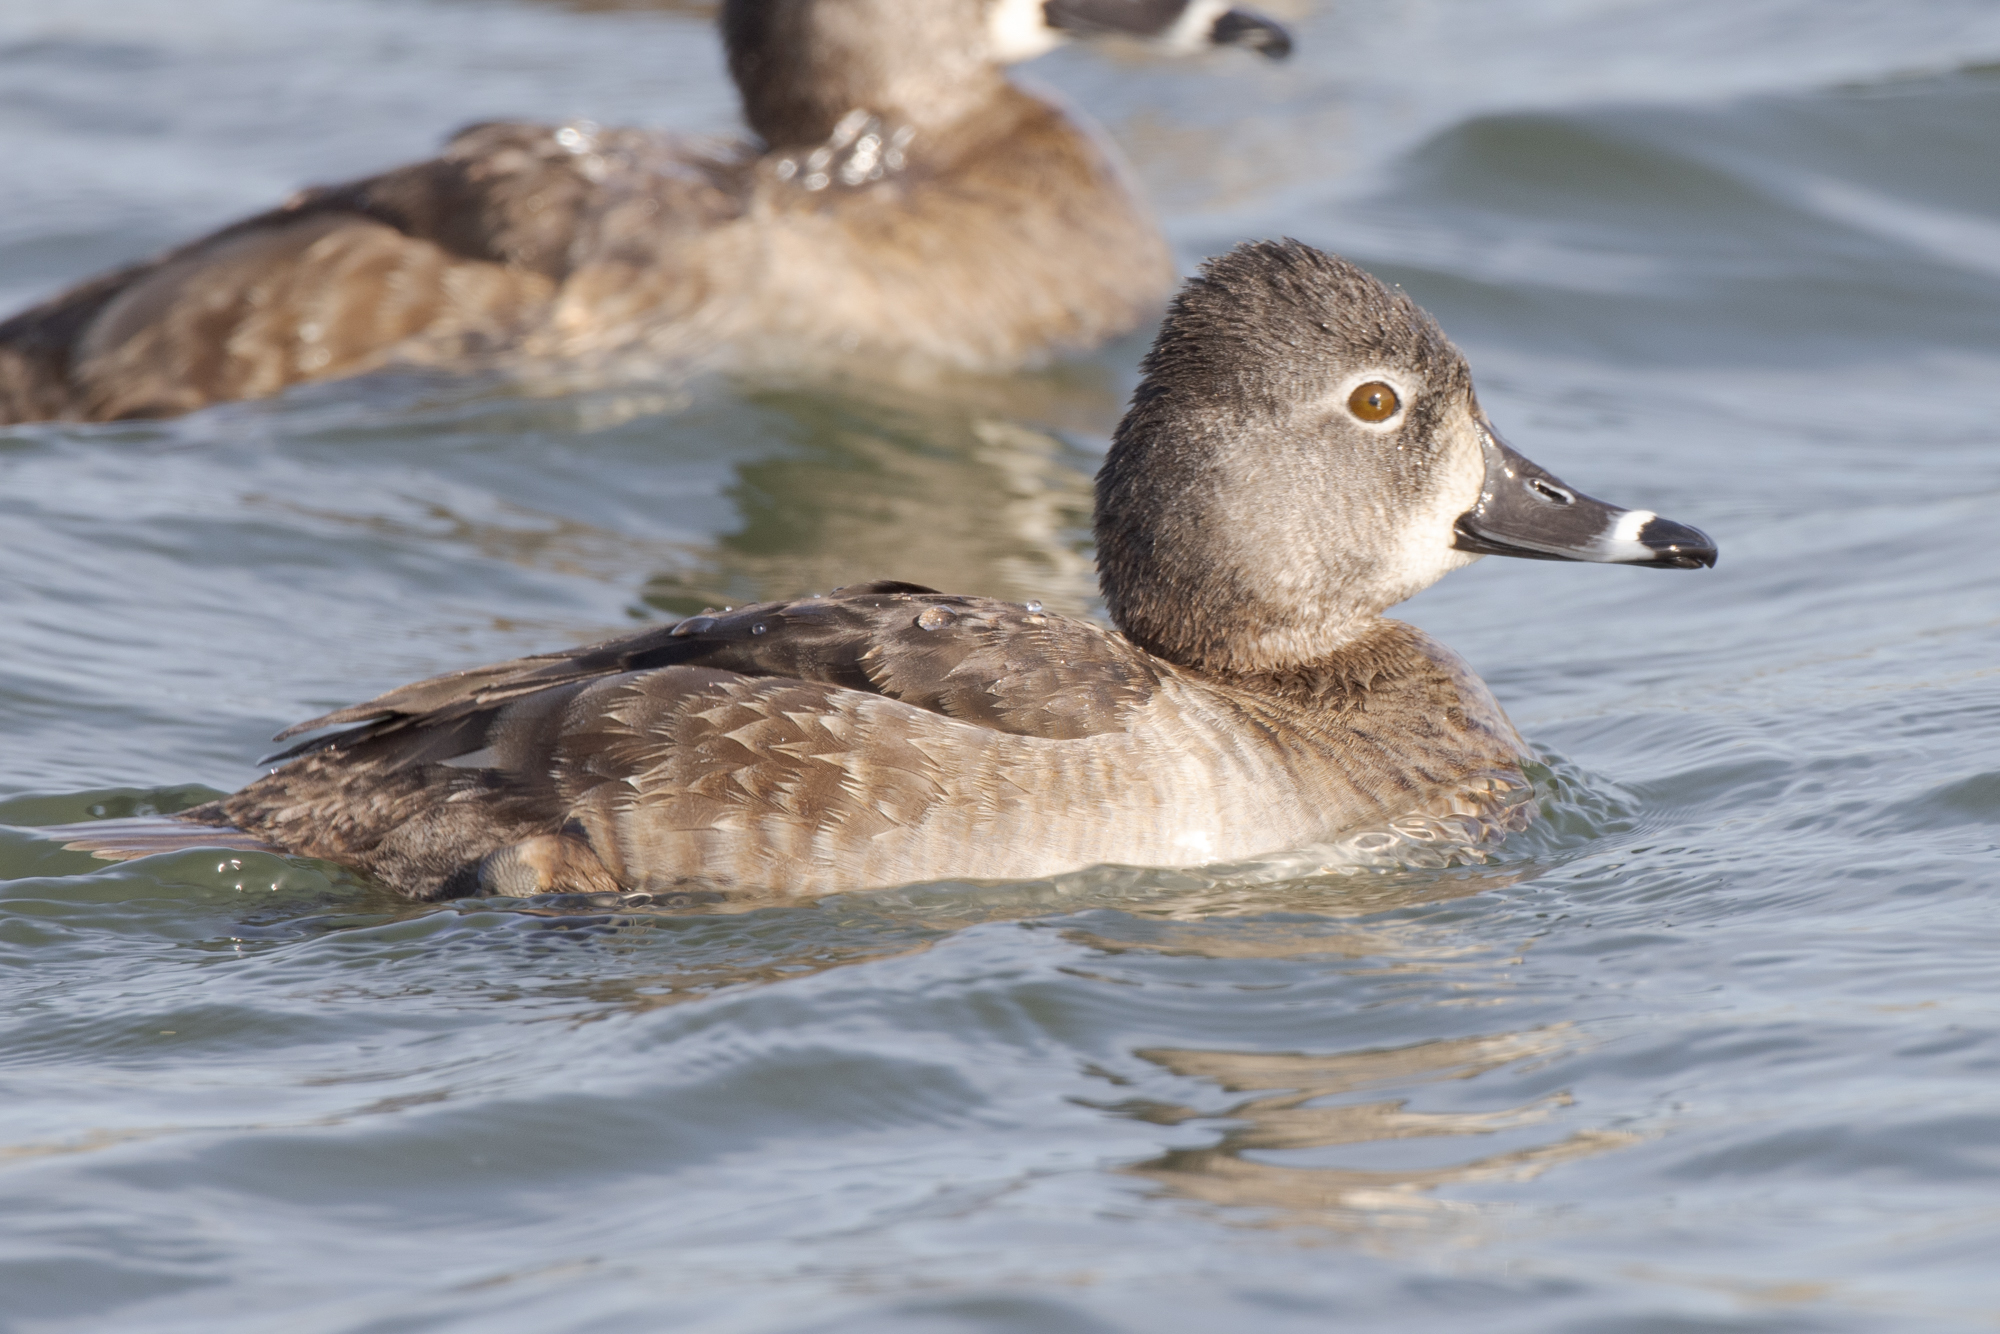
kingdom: Animalia
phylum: Chordata
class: Aves
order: Anseriformes
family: Anatidae
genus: Aythya
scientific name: Aythya collaris
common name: Ring-necked duck
